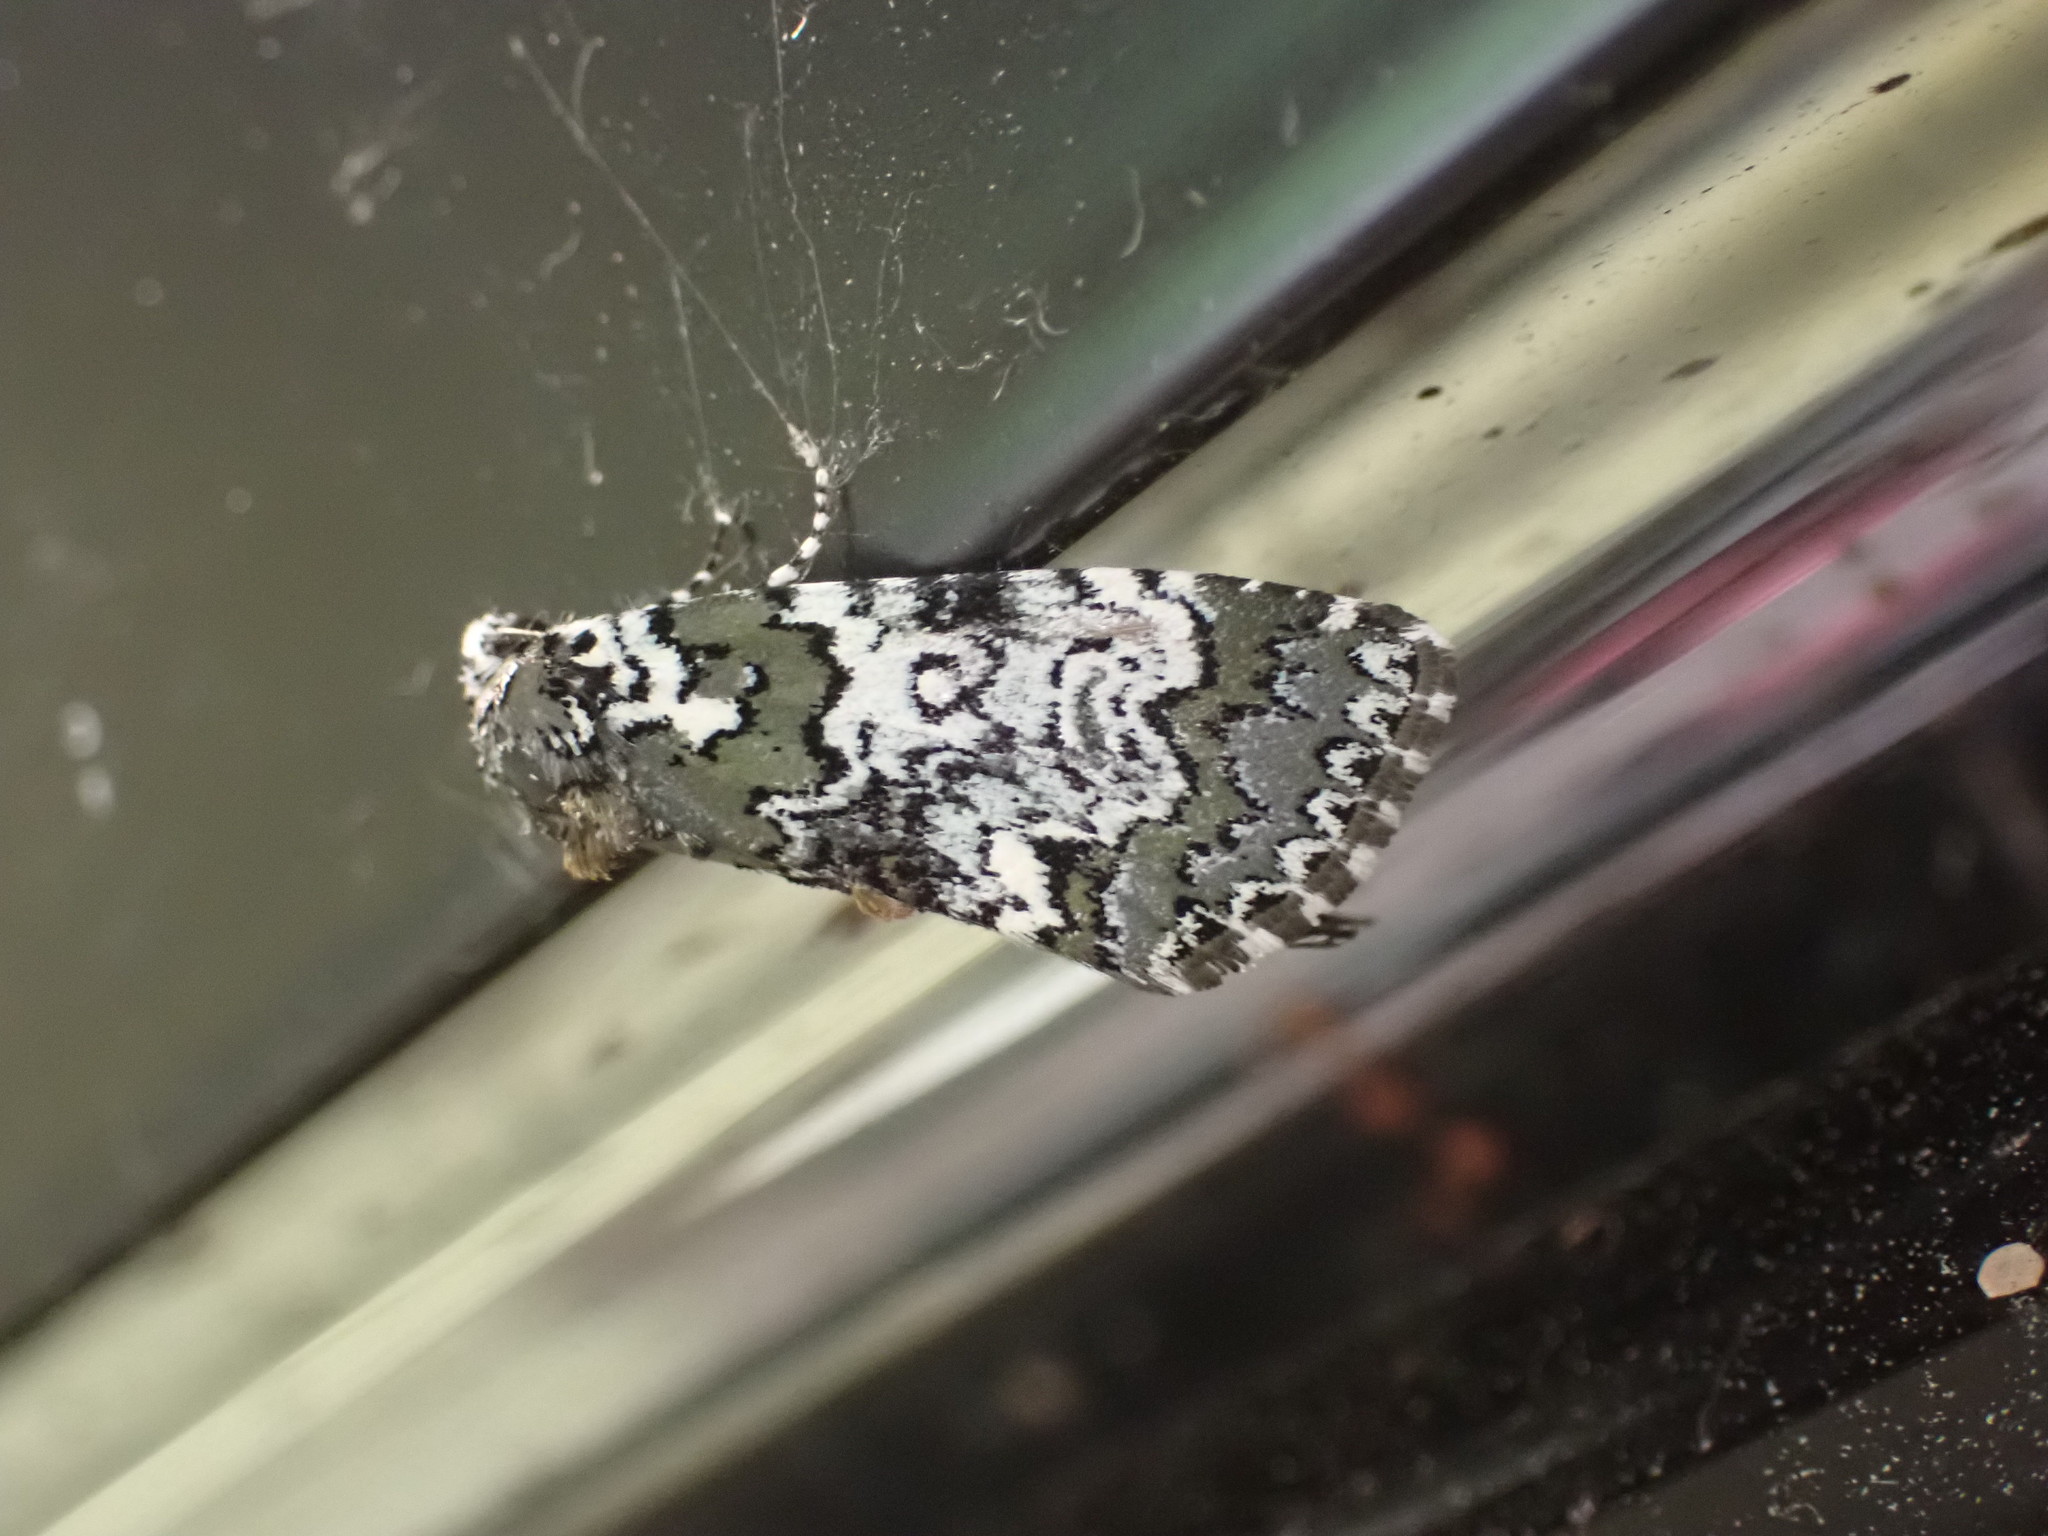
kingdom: Animalia
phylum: Arthropoda
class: Insecta
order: Lepidoptera
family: Noctuidae
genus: Cerma
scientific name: Cerma cora
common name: Bird dropping moth
